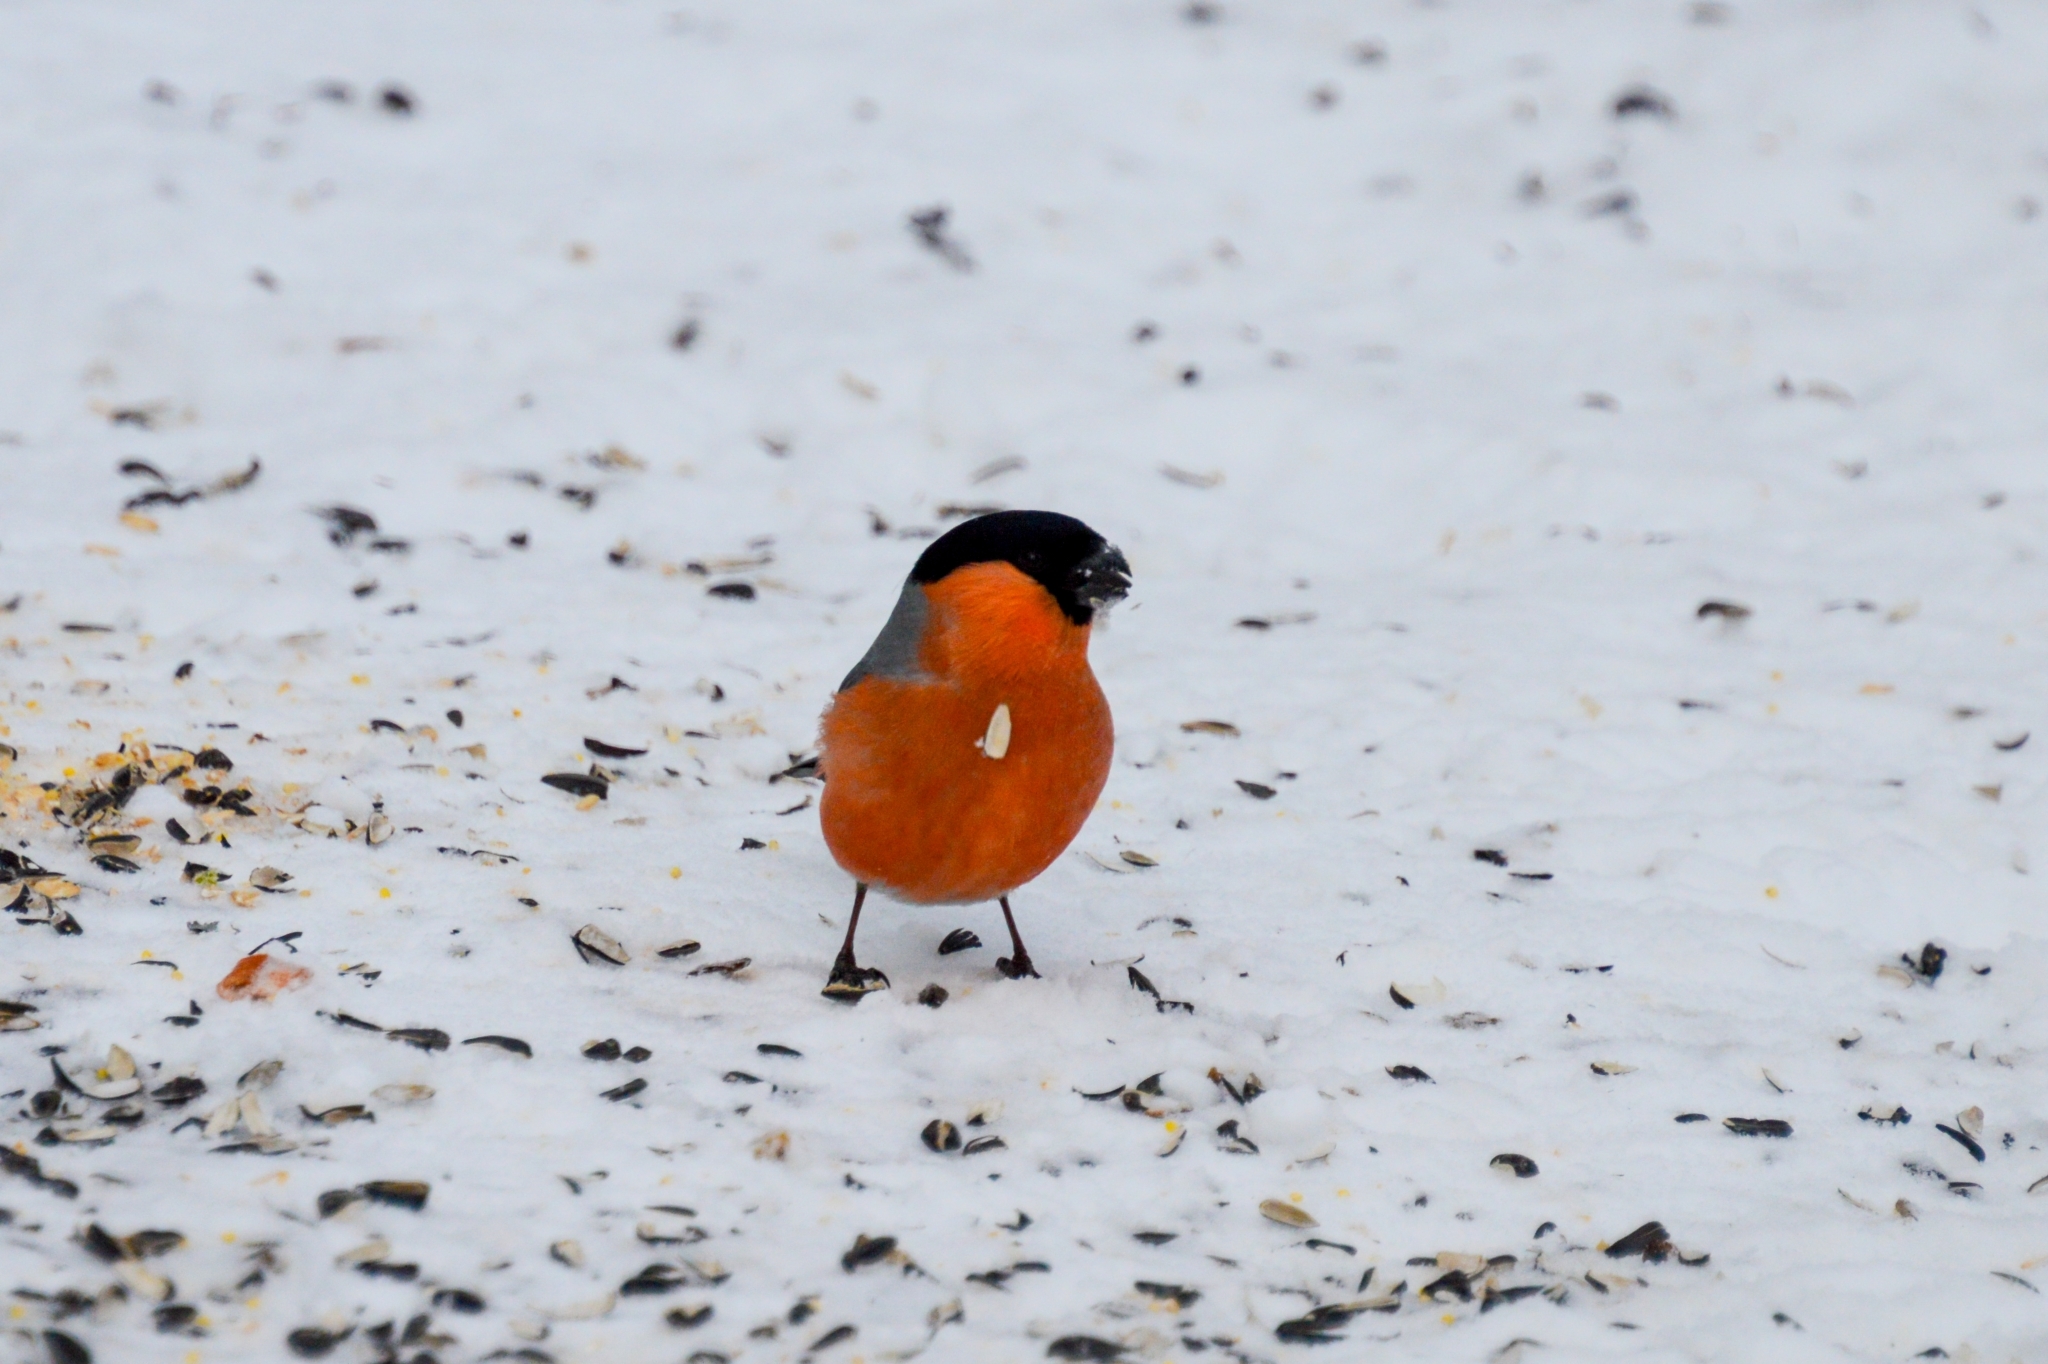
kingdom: Animalia
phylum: Chordata
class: Aves
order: Passeriformes
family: Fringillidae
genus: Pyrrhula
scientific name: Pyrrhula pyrrhula
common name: Eurasian bullfinch
